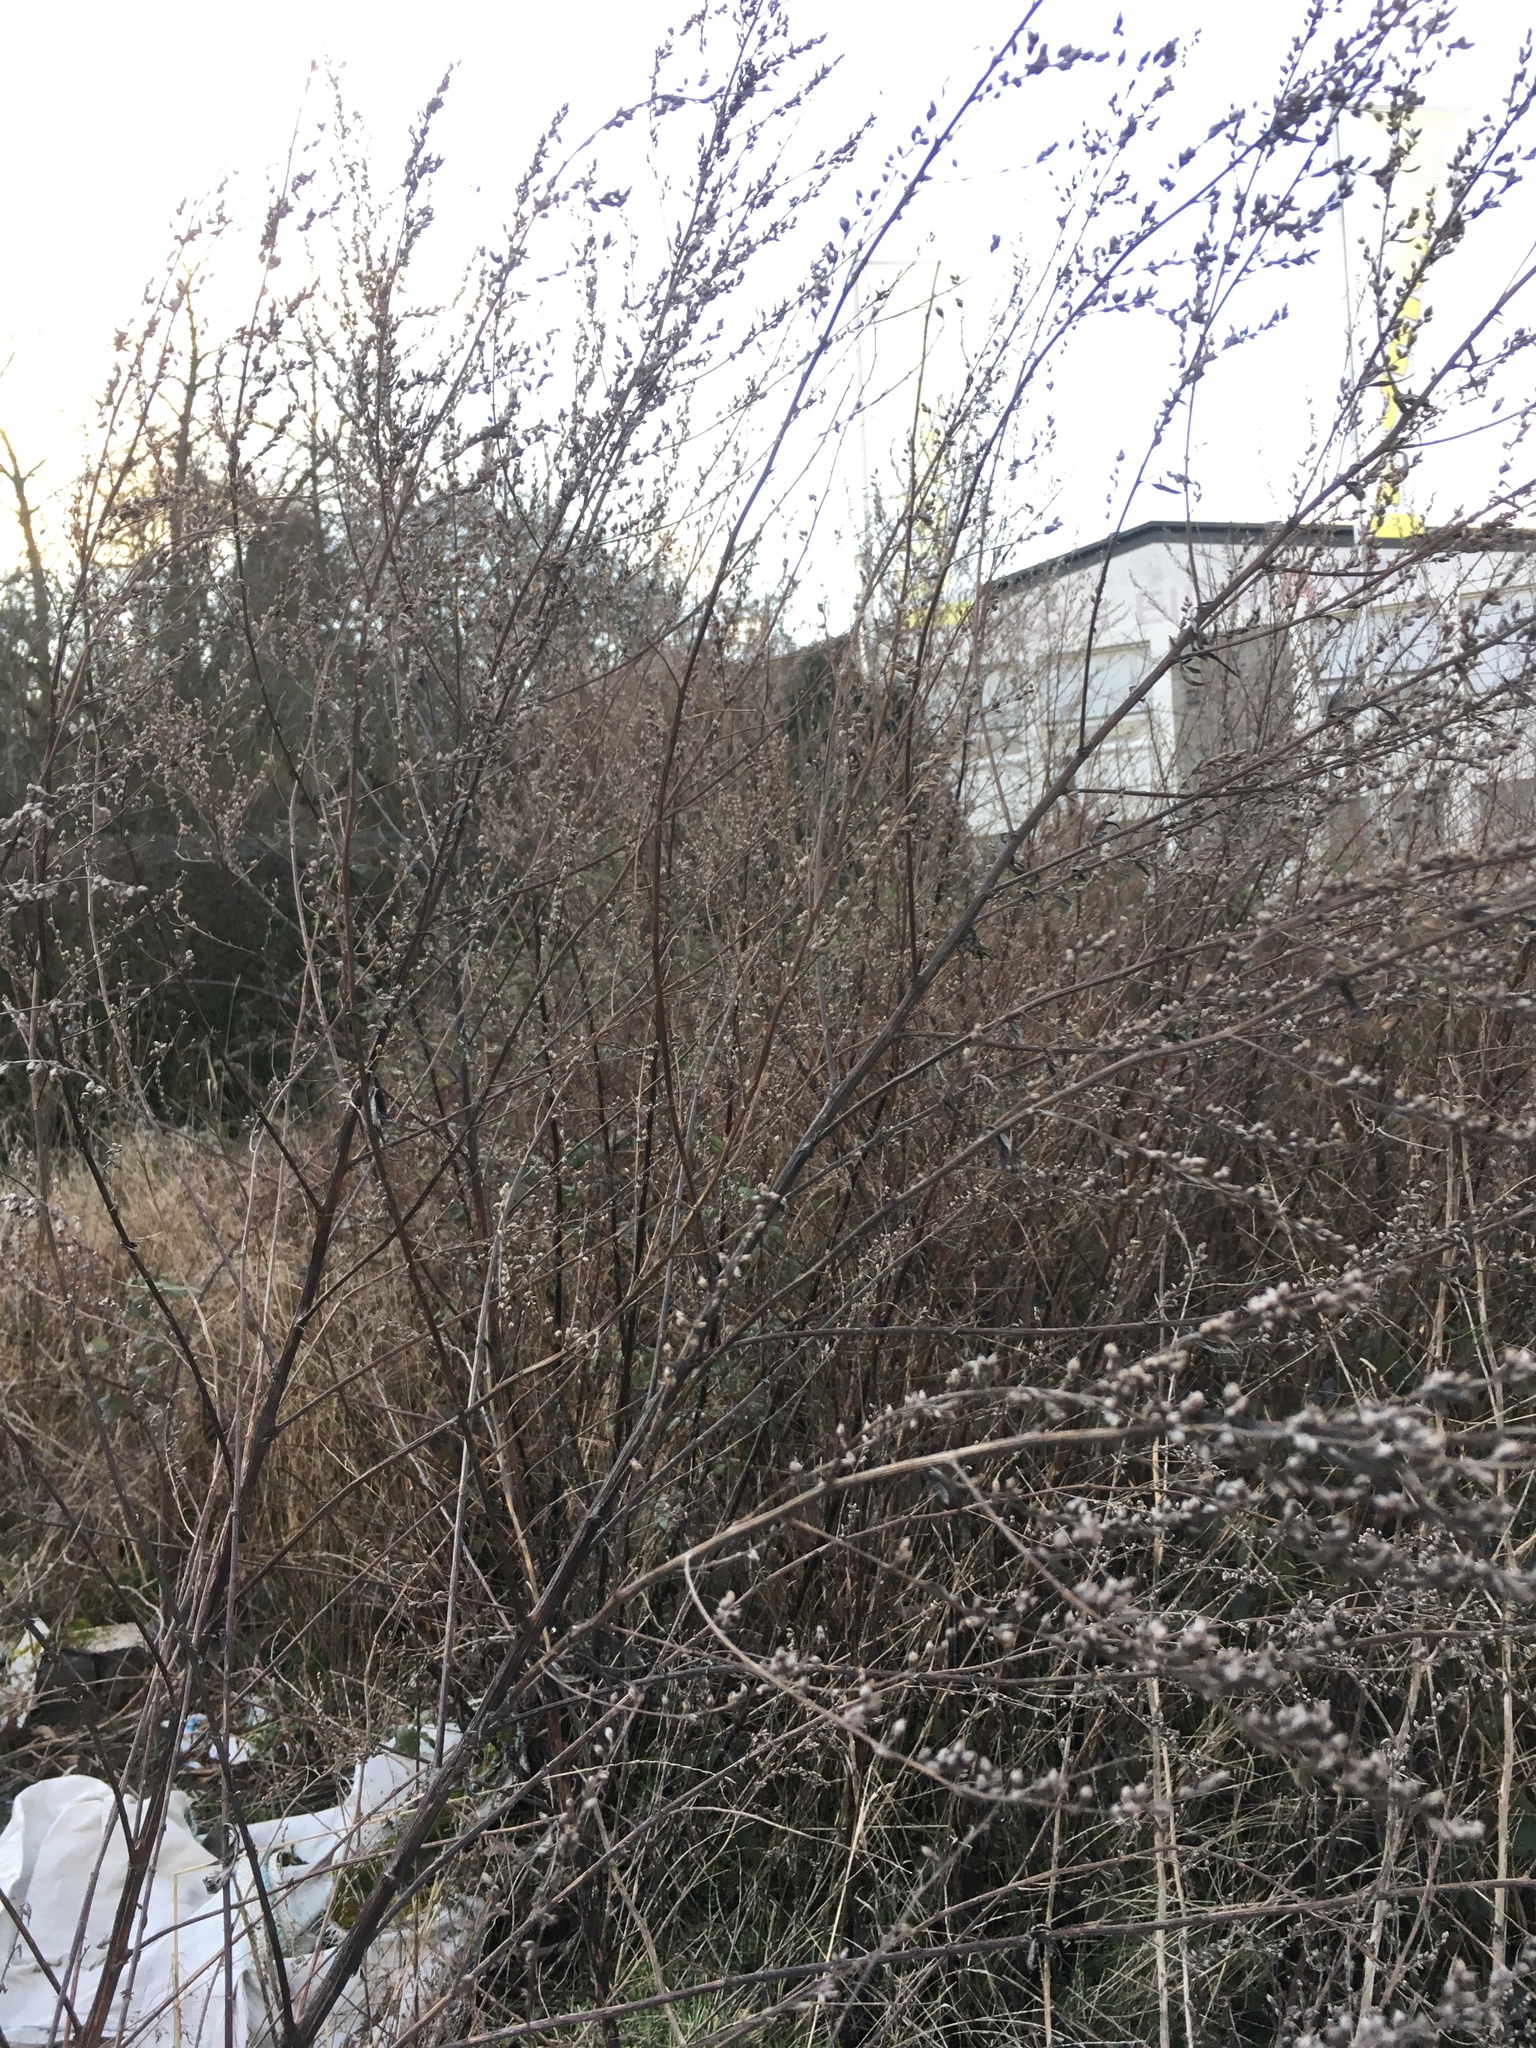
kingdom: Plantae
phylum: Tracheophyta
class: Magnoliopsida
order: Asterales
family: Asteraceae
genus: Artemisia
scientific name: Artemisia vulgaris
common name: Mugwort
